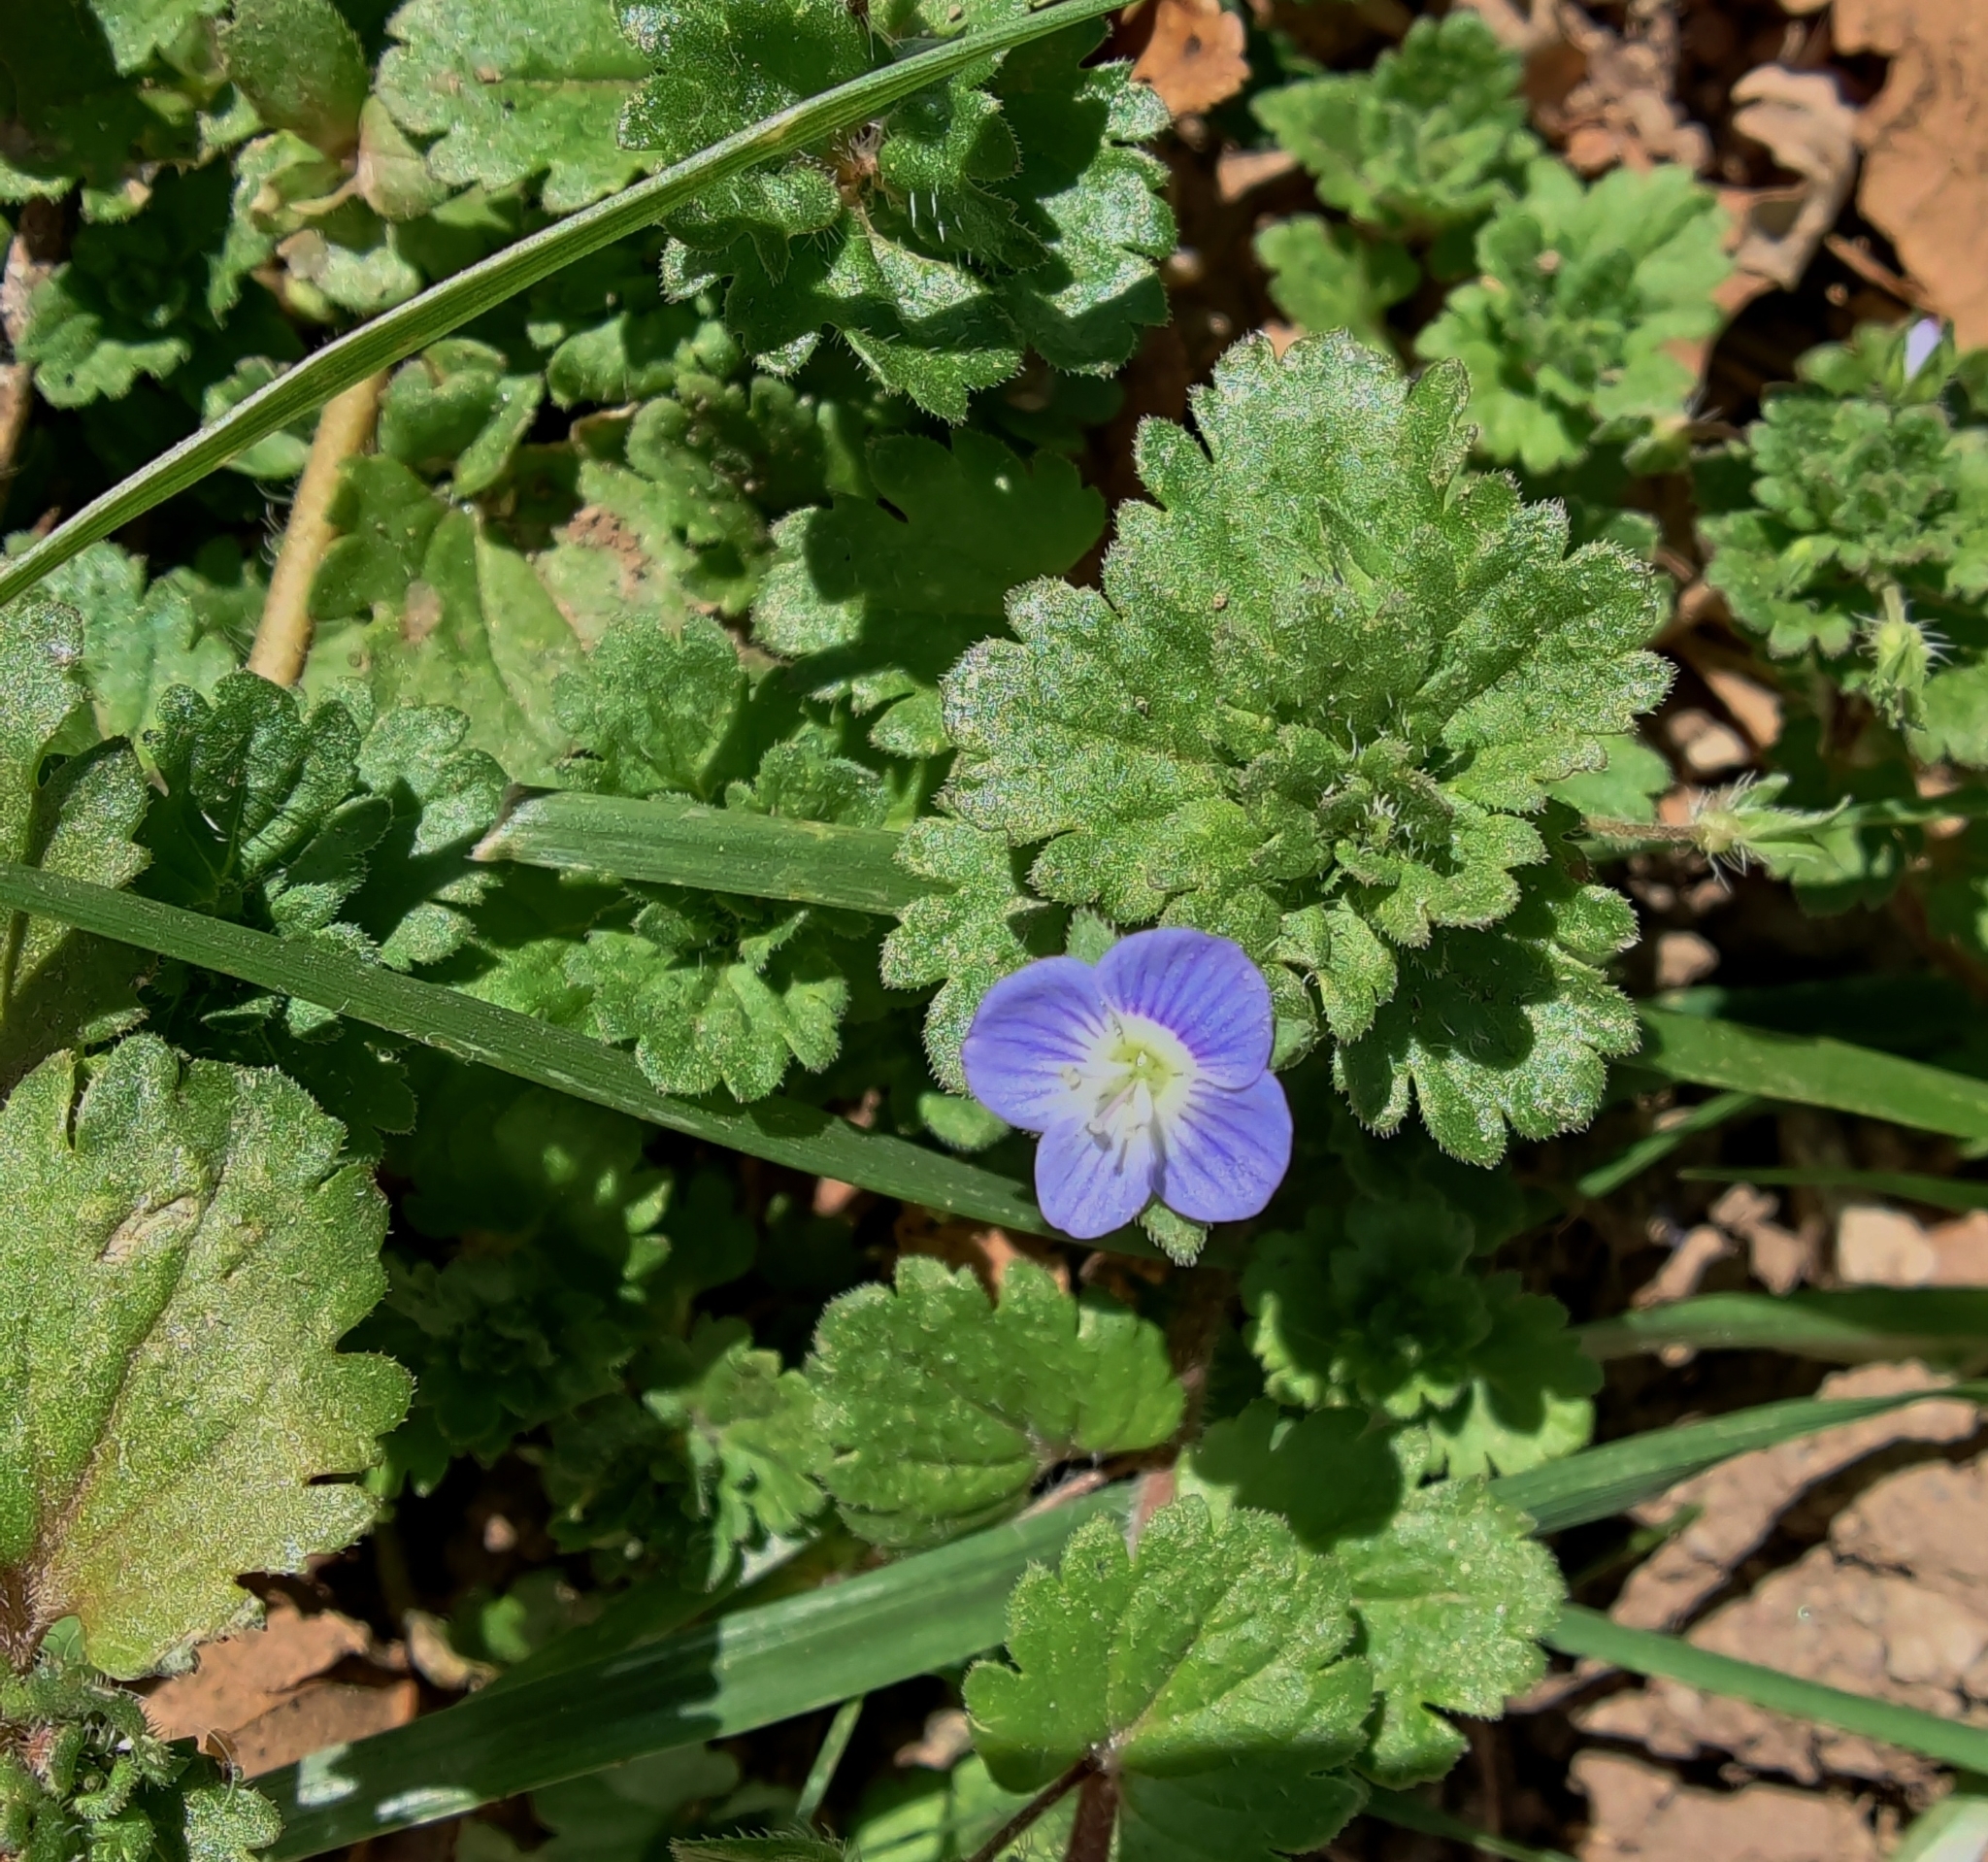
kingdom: Plantae
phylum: Tracheophyta
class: Magnoliopsida
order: Lamiales
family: Plantaginaceae
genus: Veronica
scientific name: Veronica persica
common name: Common field-speedwell
